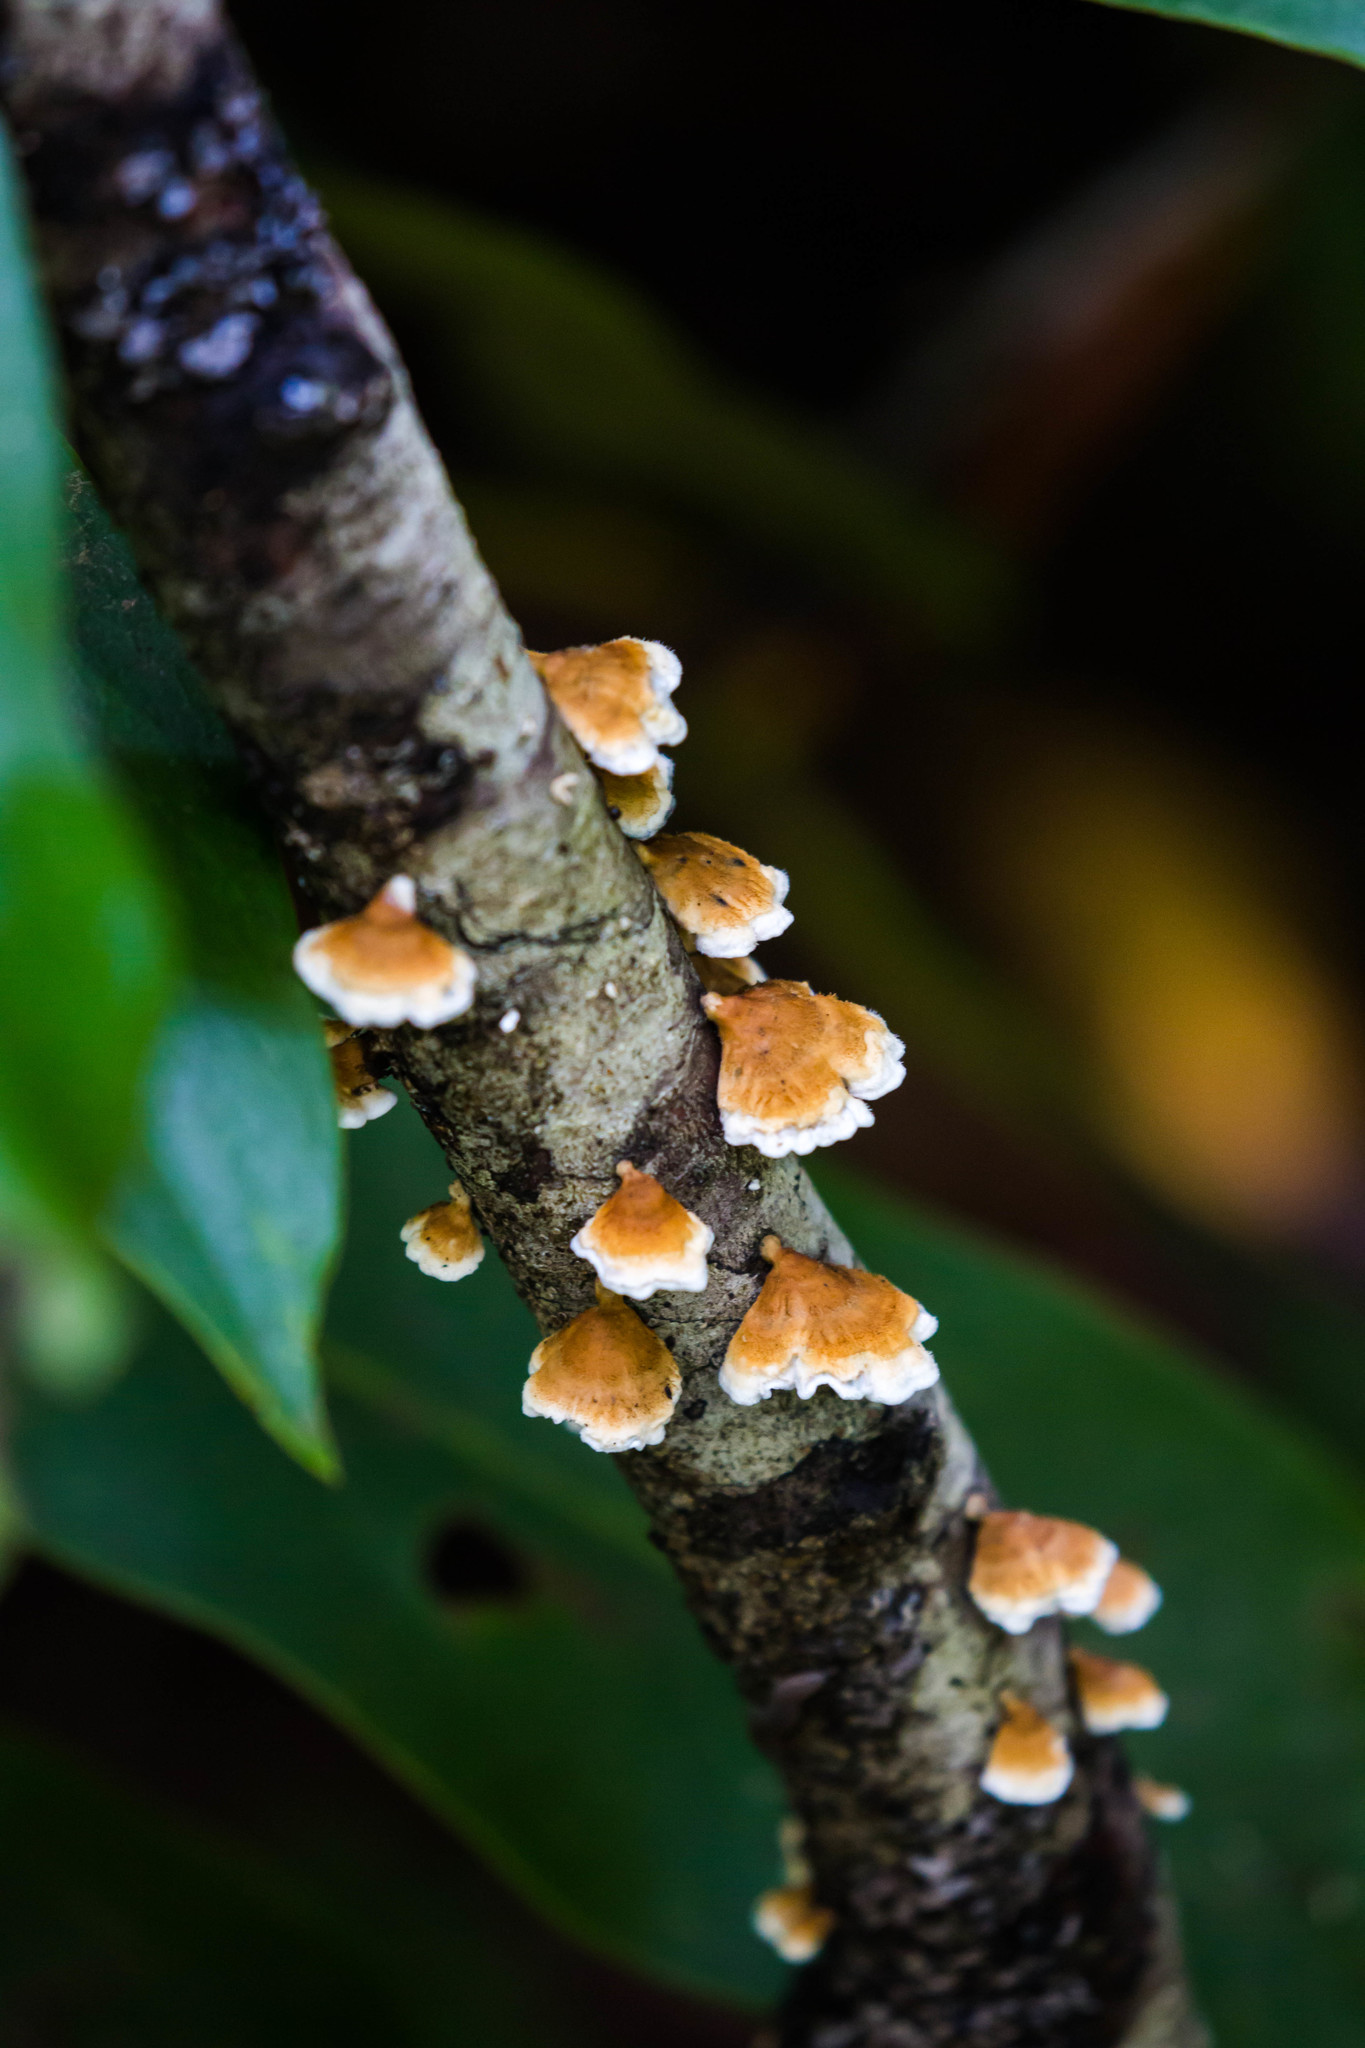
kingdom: Fungi
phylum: Basidiomycota
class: Agaricomycetes
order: Amylocorticiales
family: Amylocorticiaceae
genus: Plicaturopsis
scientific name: Plicaturopsis crispa
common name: Crimped gill
